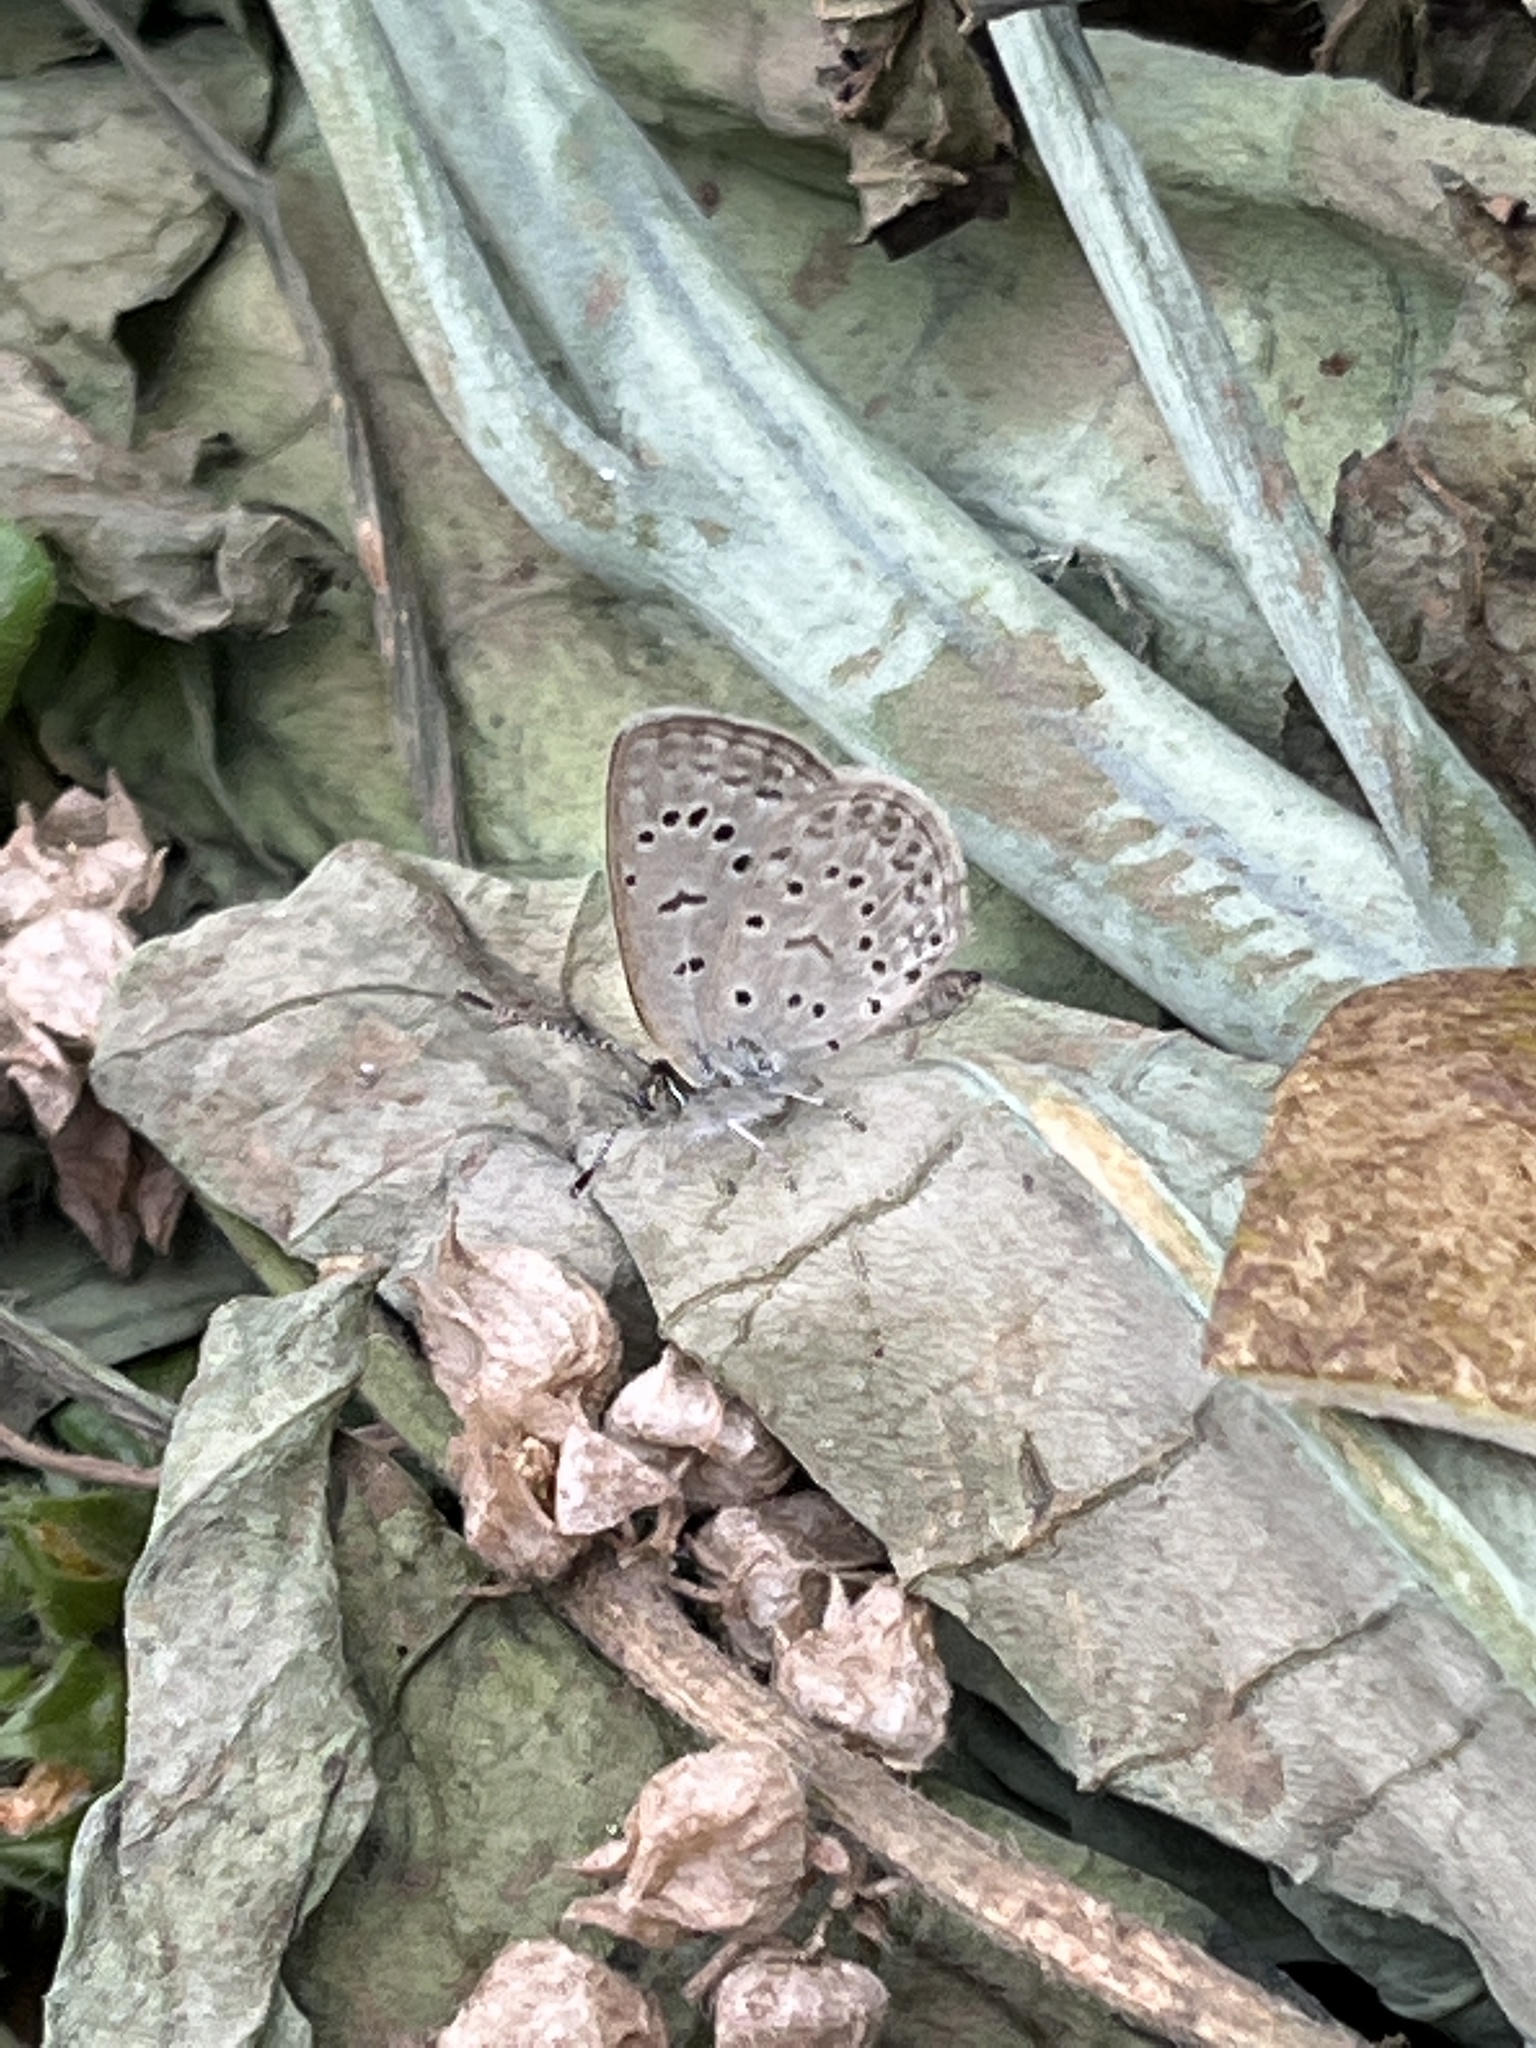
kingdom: Animalia
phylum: Arthropoda
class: Insecta
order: Lepidoptera
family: Lycaenidae
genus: Zizeeria
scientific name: Zizeeria knysna
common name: African grass blue
